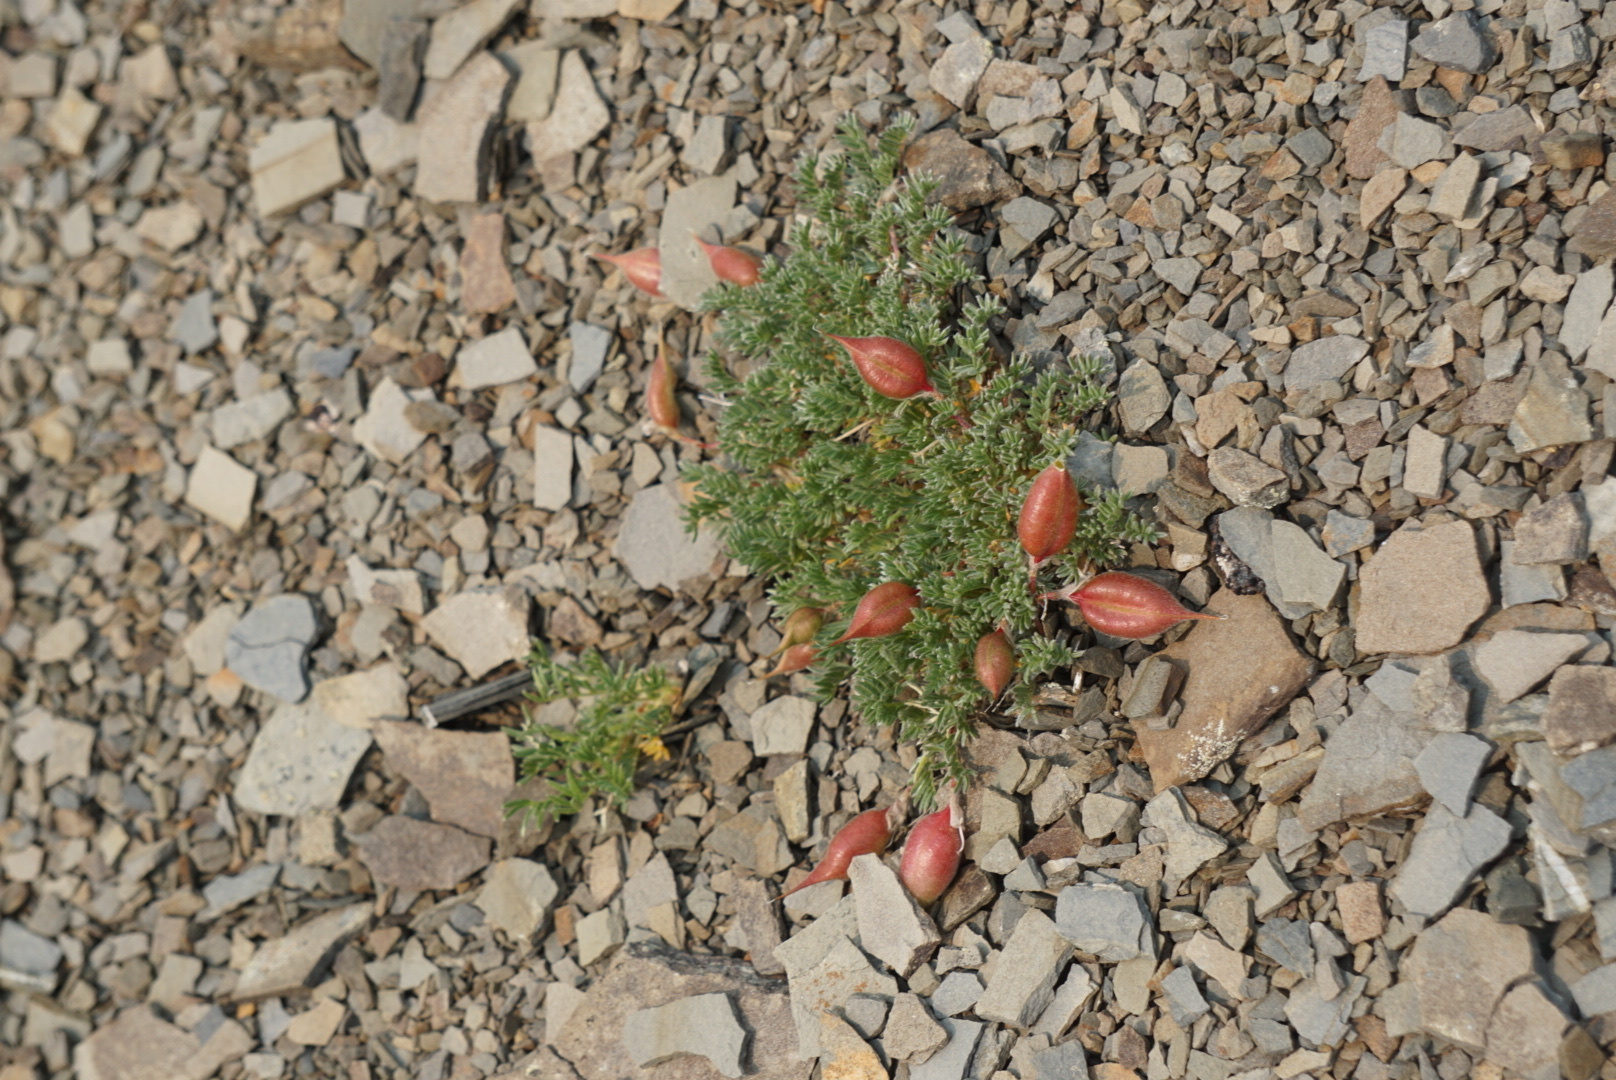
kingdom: Plantae
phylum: Tracheophyta
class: Magnoliopsida
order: Fabales
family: Fabaceae
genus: Oxytropis
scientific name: Oxytropis podocarpa
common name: Gray's oxytrope
